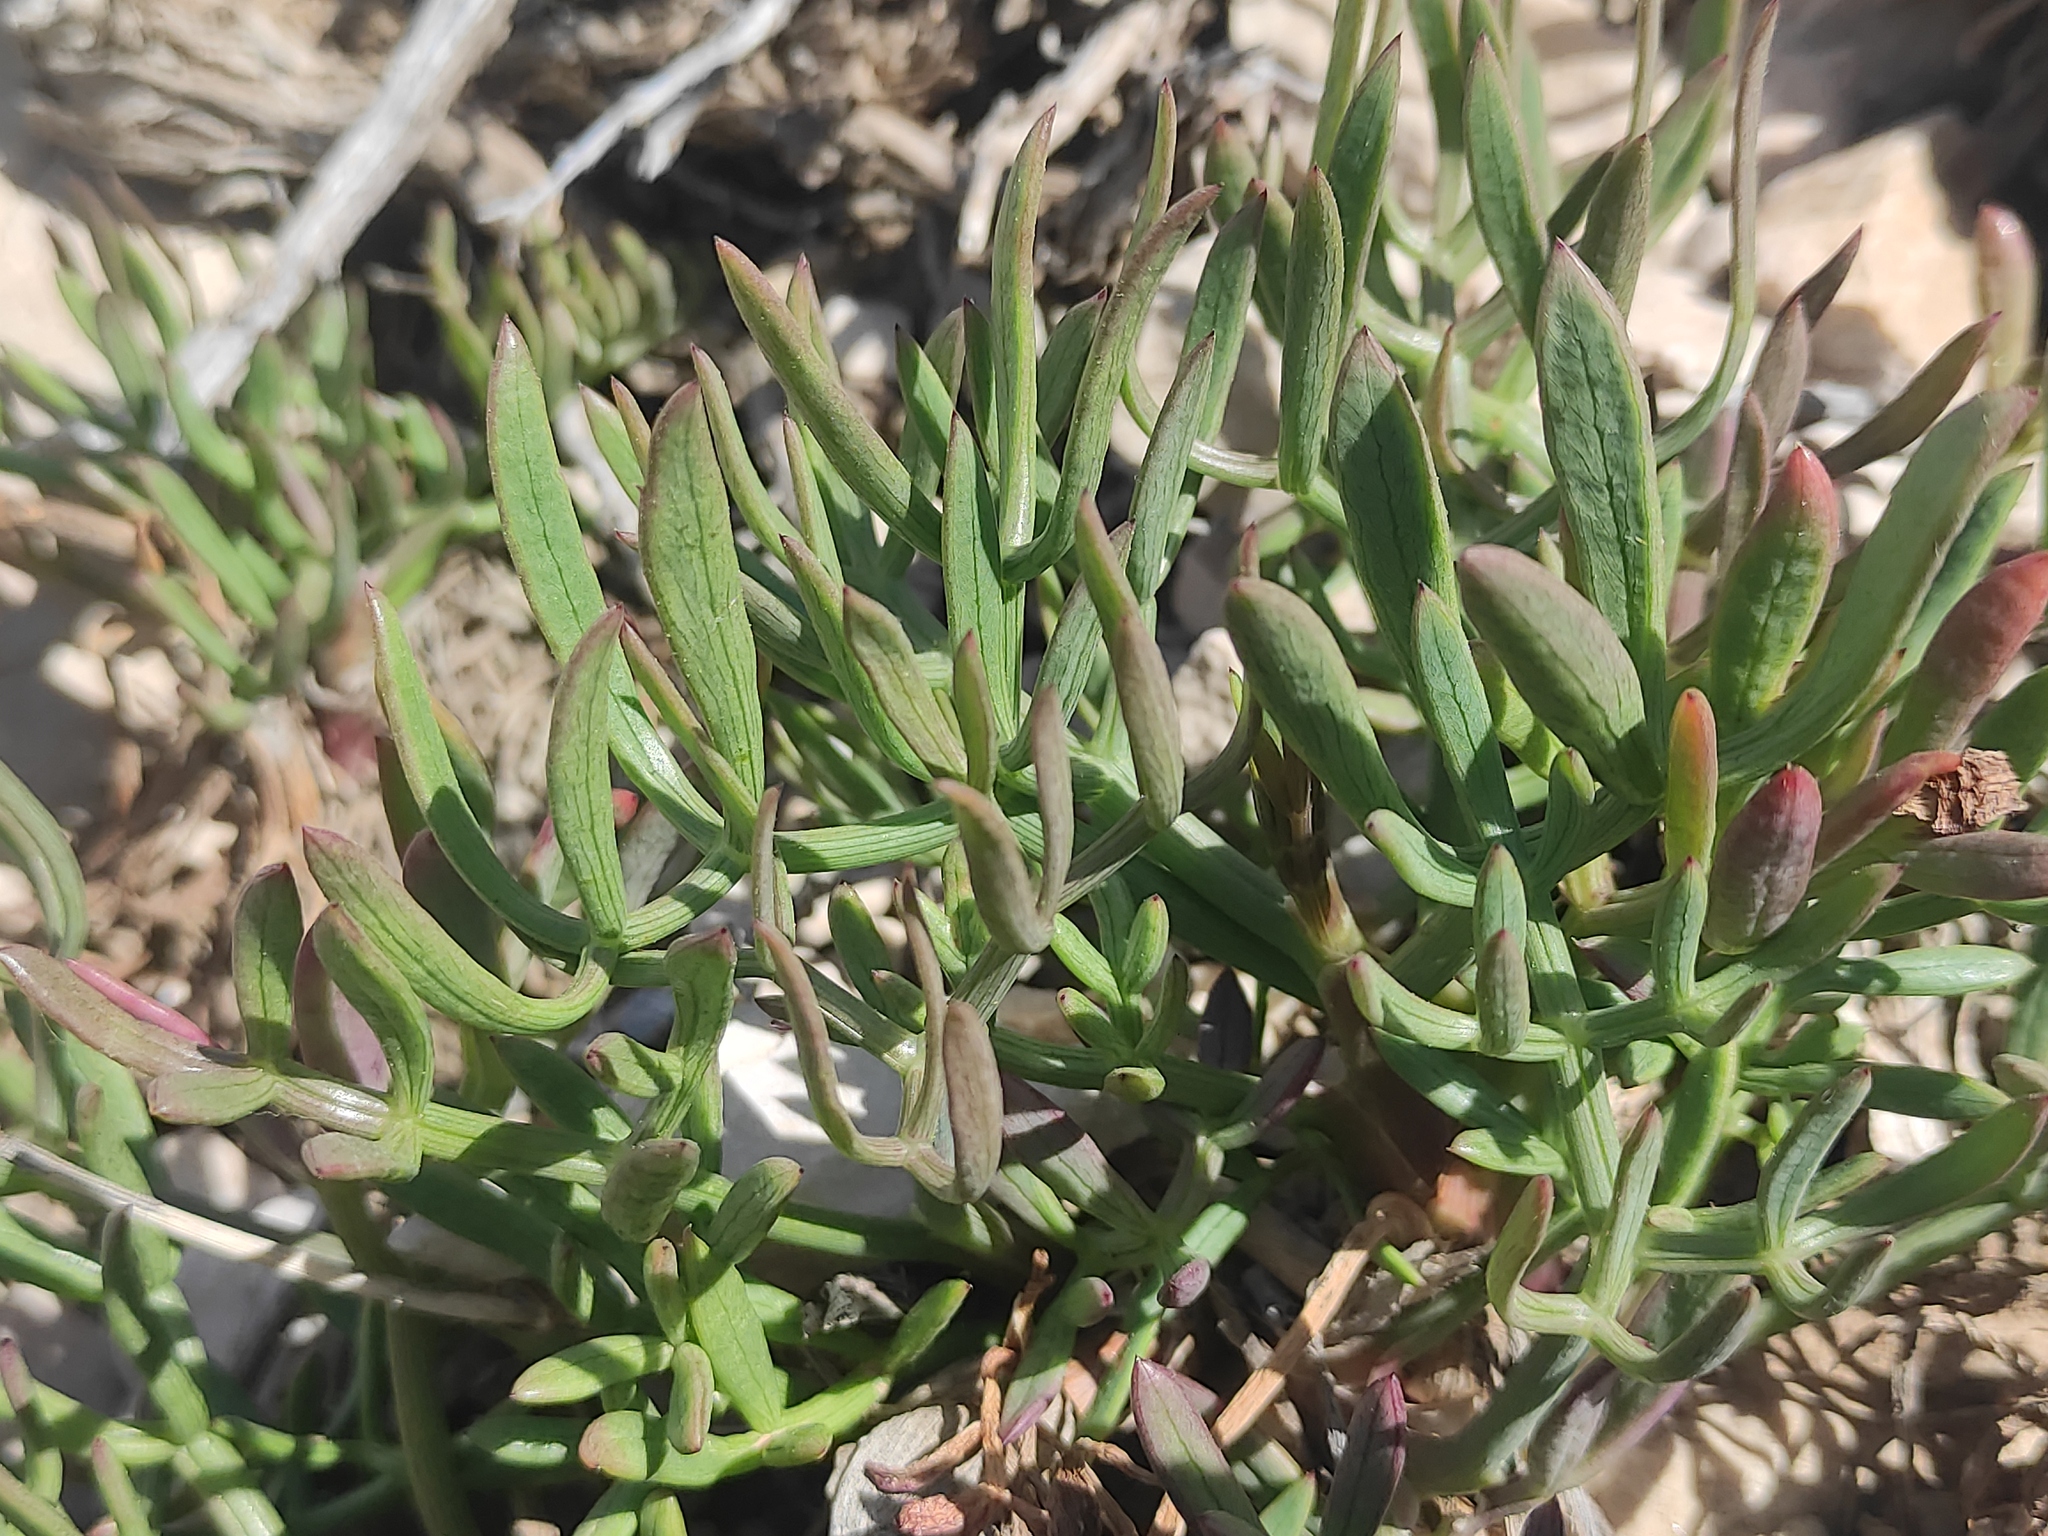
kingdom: Plantae
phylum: Tracheophyta
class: Magnoliopsida
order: Apiales
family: Apiaceae
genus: Crithmum
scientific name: Crithmum maritimum
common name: Rock samphire
